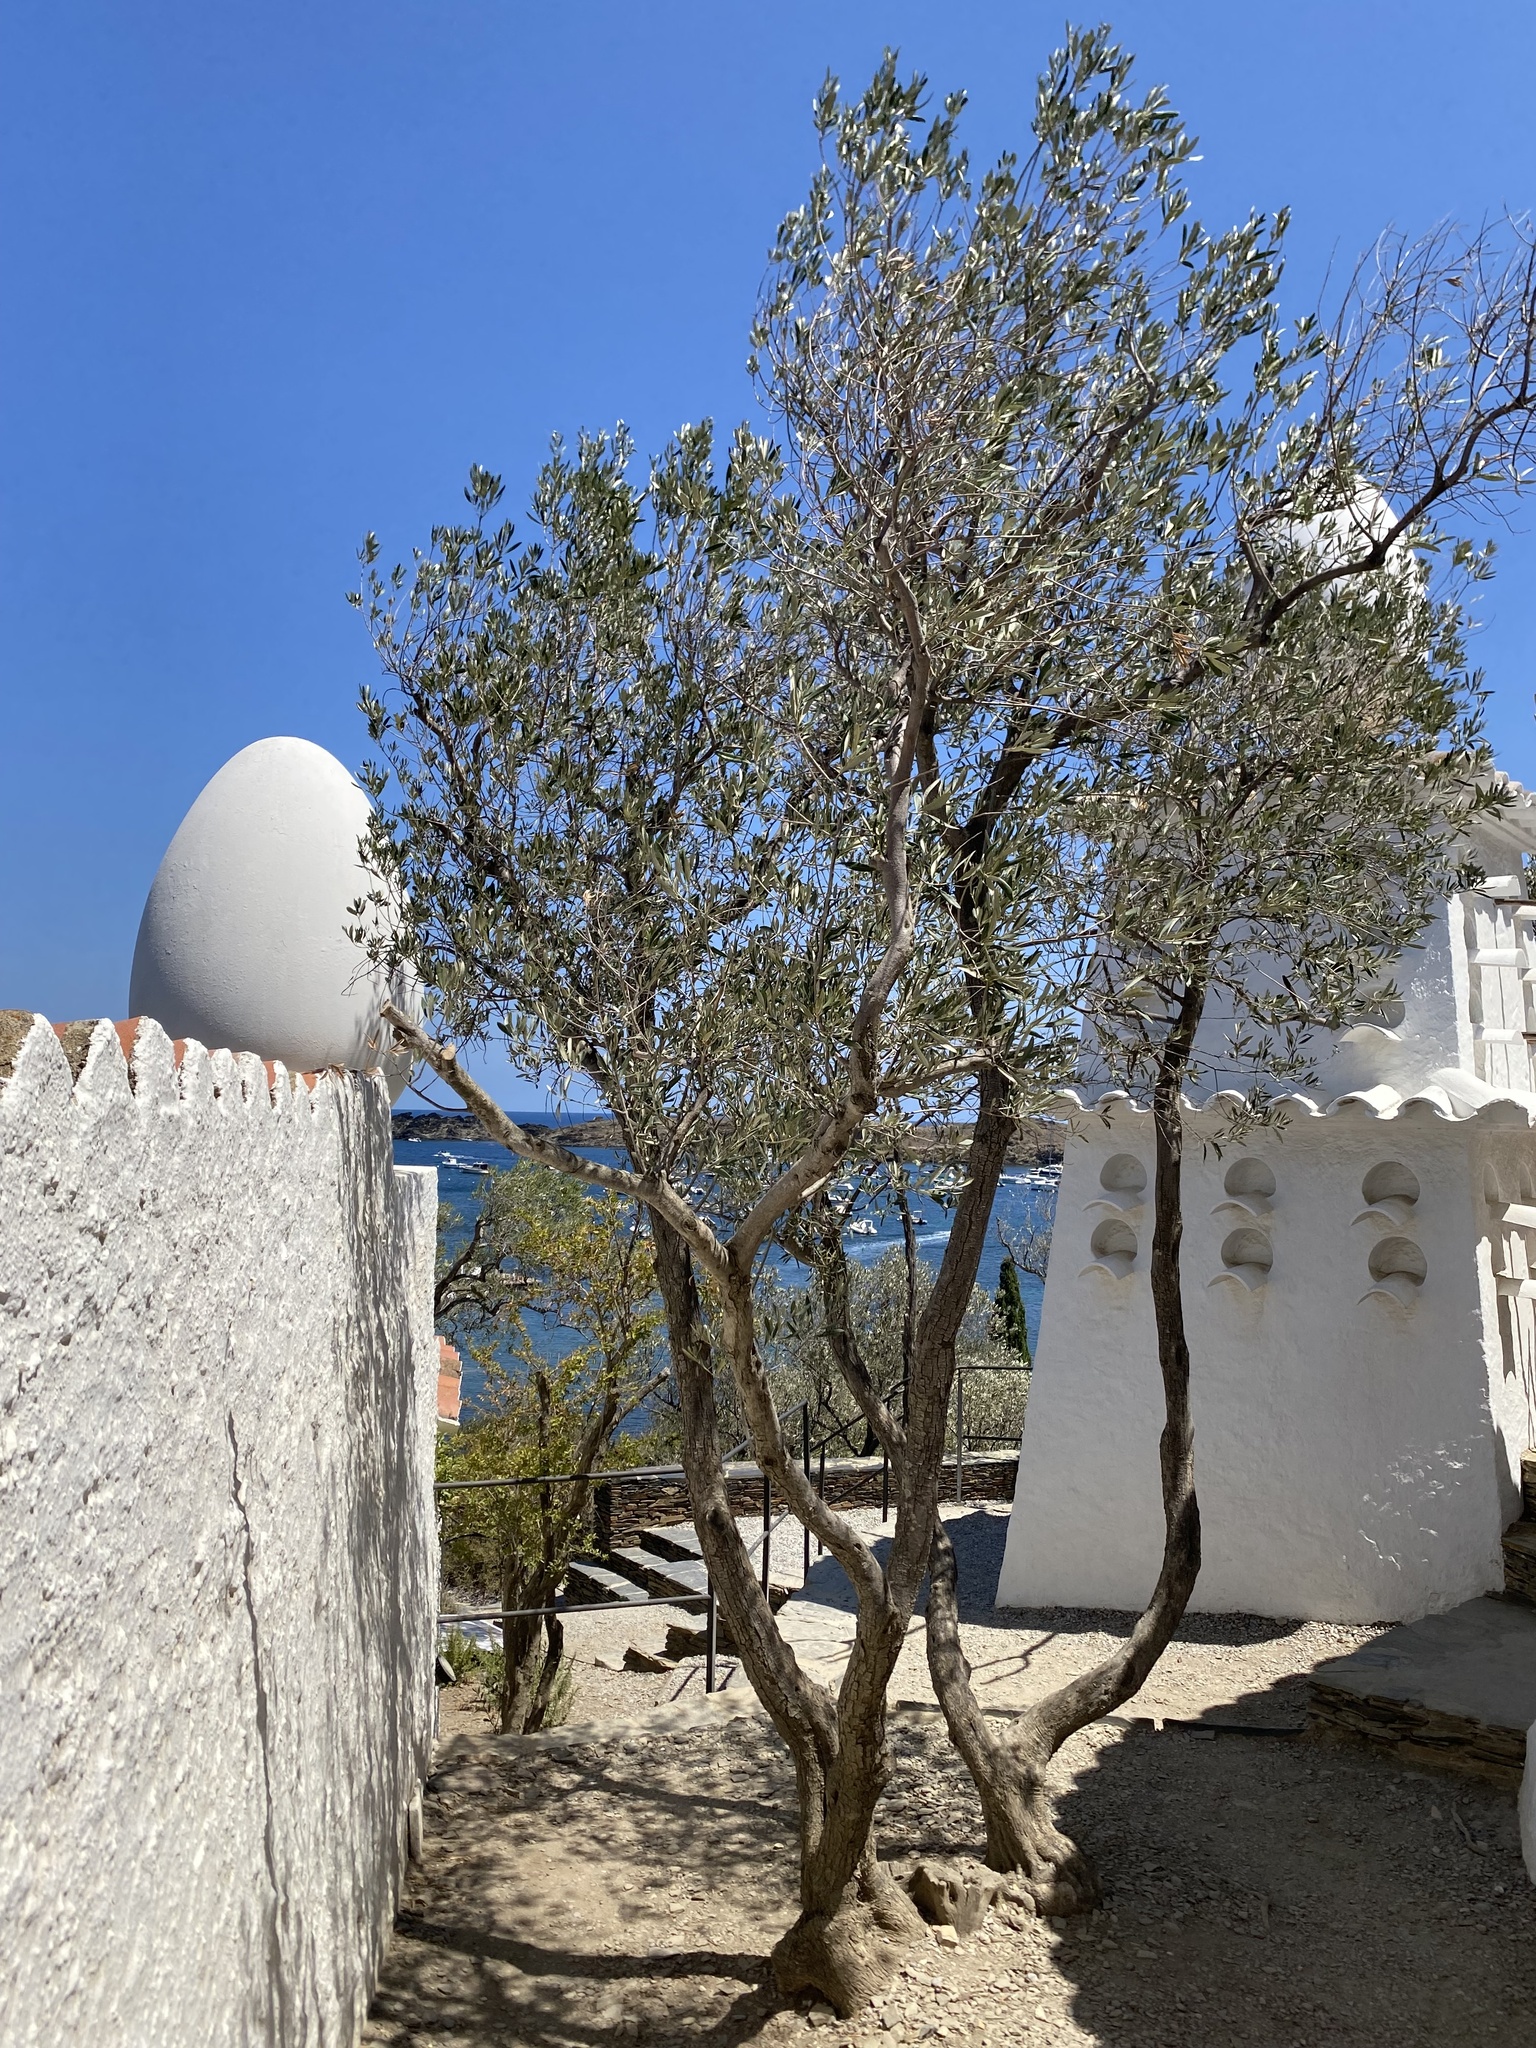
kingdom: Plantae
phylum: Tracheophyta
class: Magnoliopsida
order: Lamiales
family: Oleaceae
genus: Olea
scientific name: Olea europaea
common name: Olive
